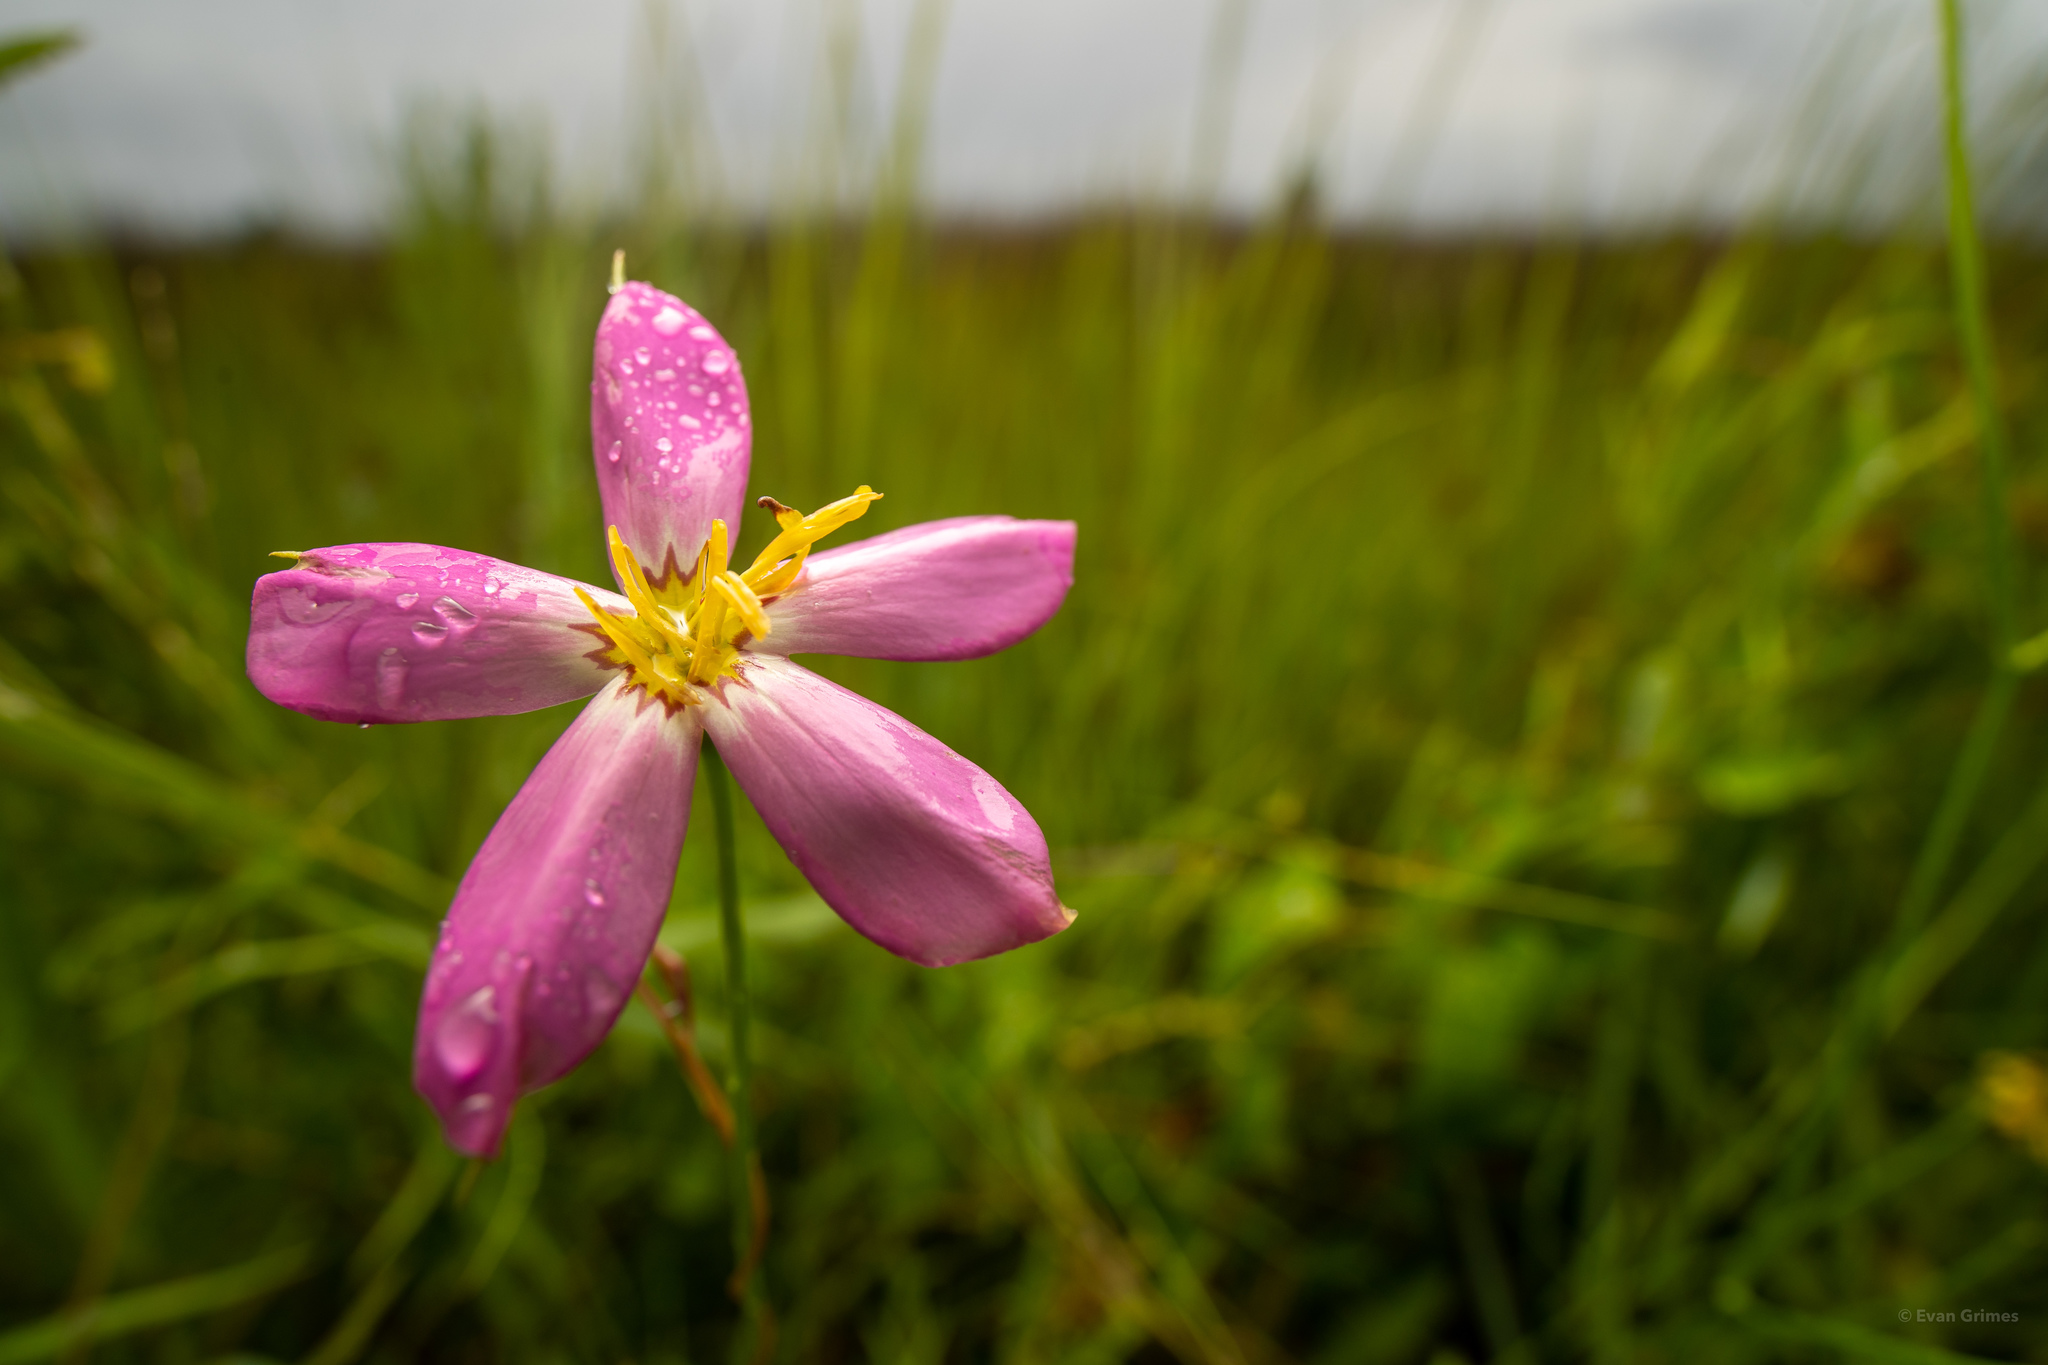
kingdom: Plantae
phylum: Tracheophyta
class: Magnoliopsida
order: Gentianales
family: Gentianaceae
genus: Sabatia
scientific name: Sabatia stellaris
